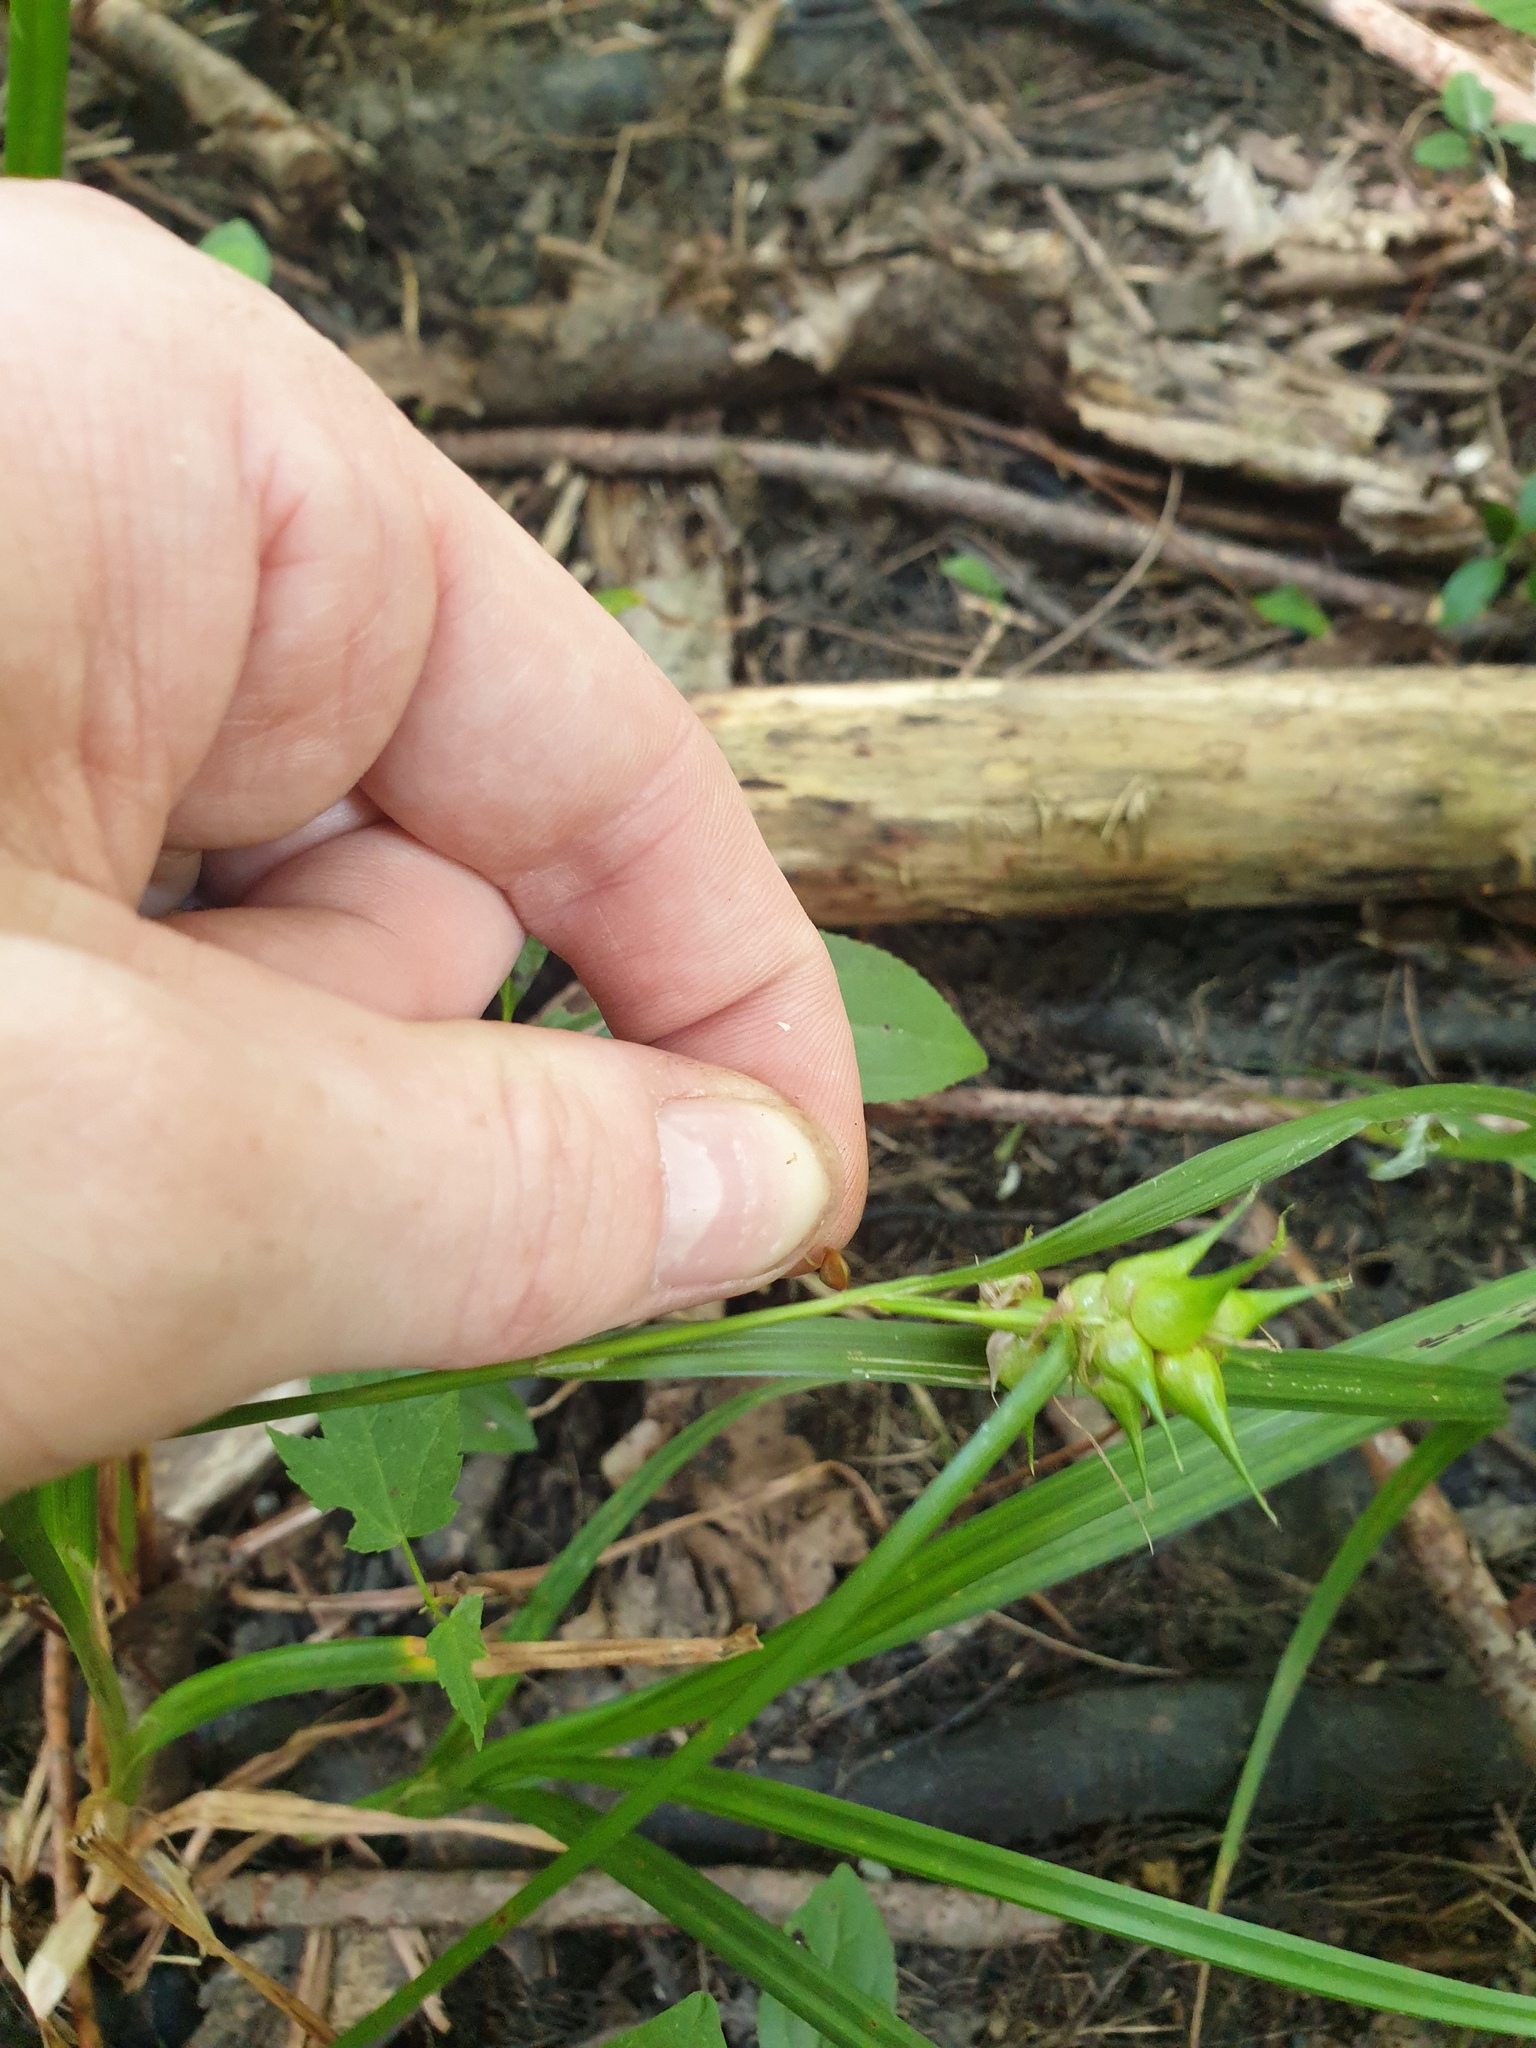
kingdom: Plantae
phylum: Tracheophyta
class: Liliopsida
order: Poales
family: Cyperaceae
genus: Carex
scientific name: Carex lupulina
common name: Hop sedge
